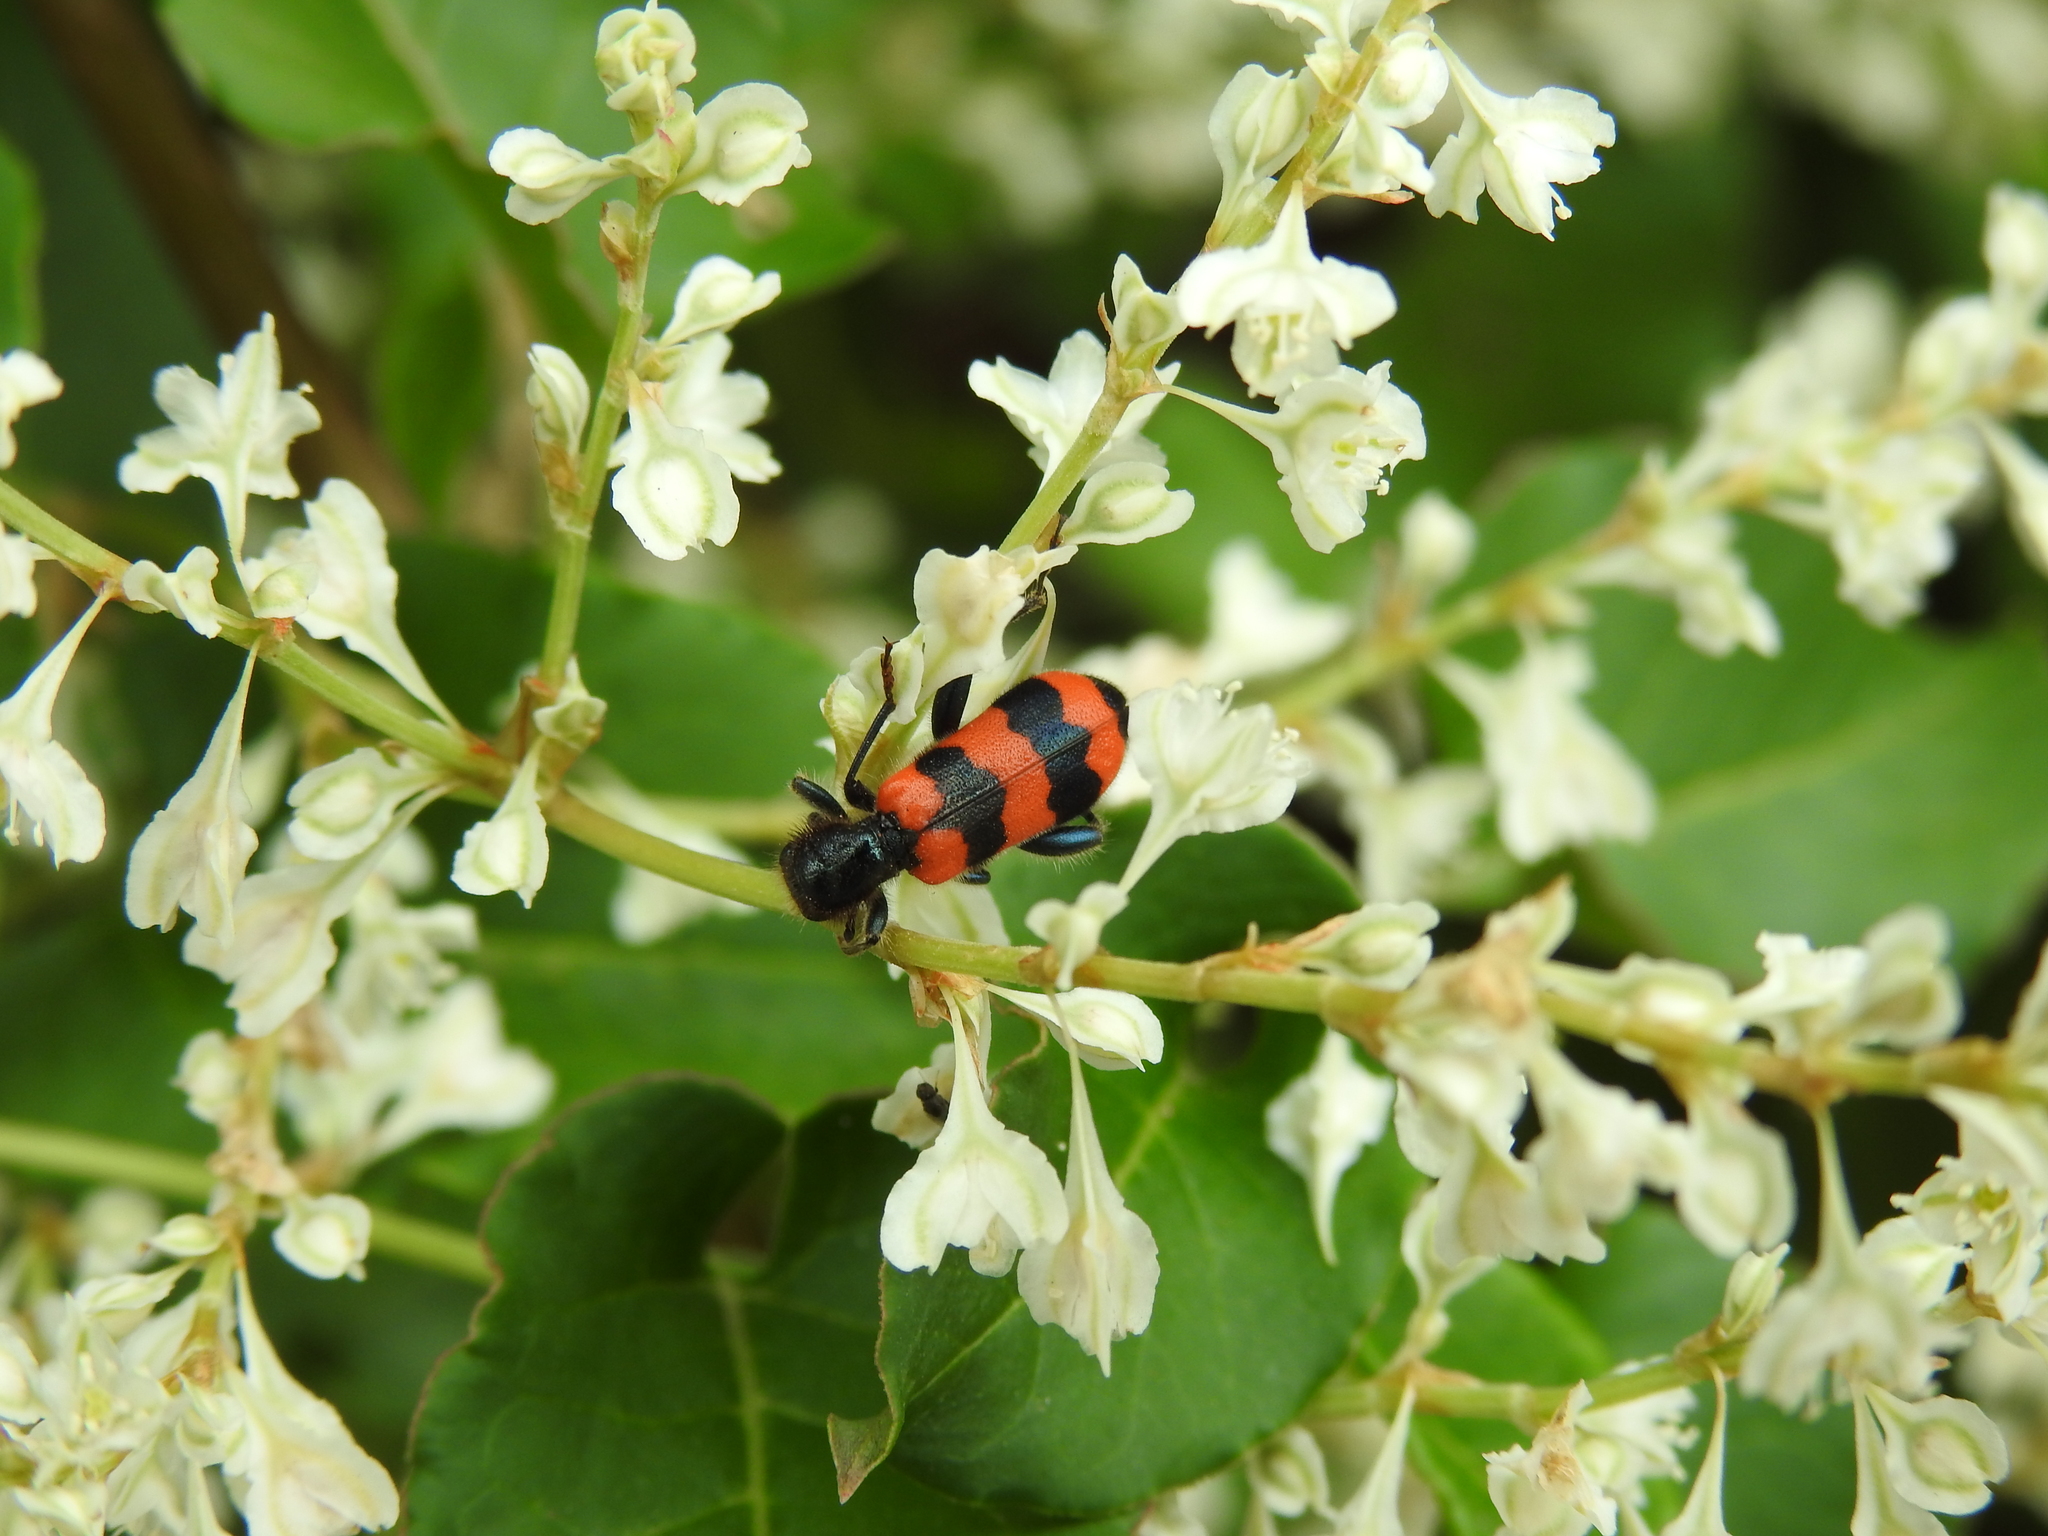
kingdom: Animalia
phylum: Arthropoda
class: Insecta
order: Coleoptera
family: Cleridae
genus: Trichodes
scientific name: Trichodes apiarius
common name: Bee-eating beetle
